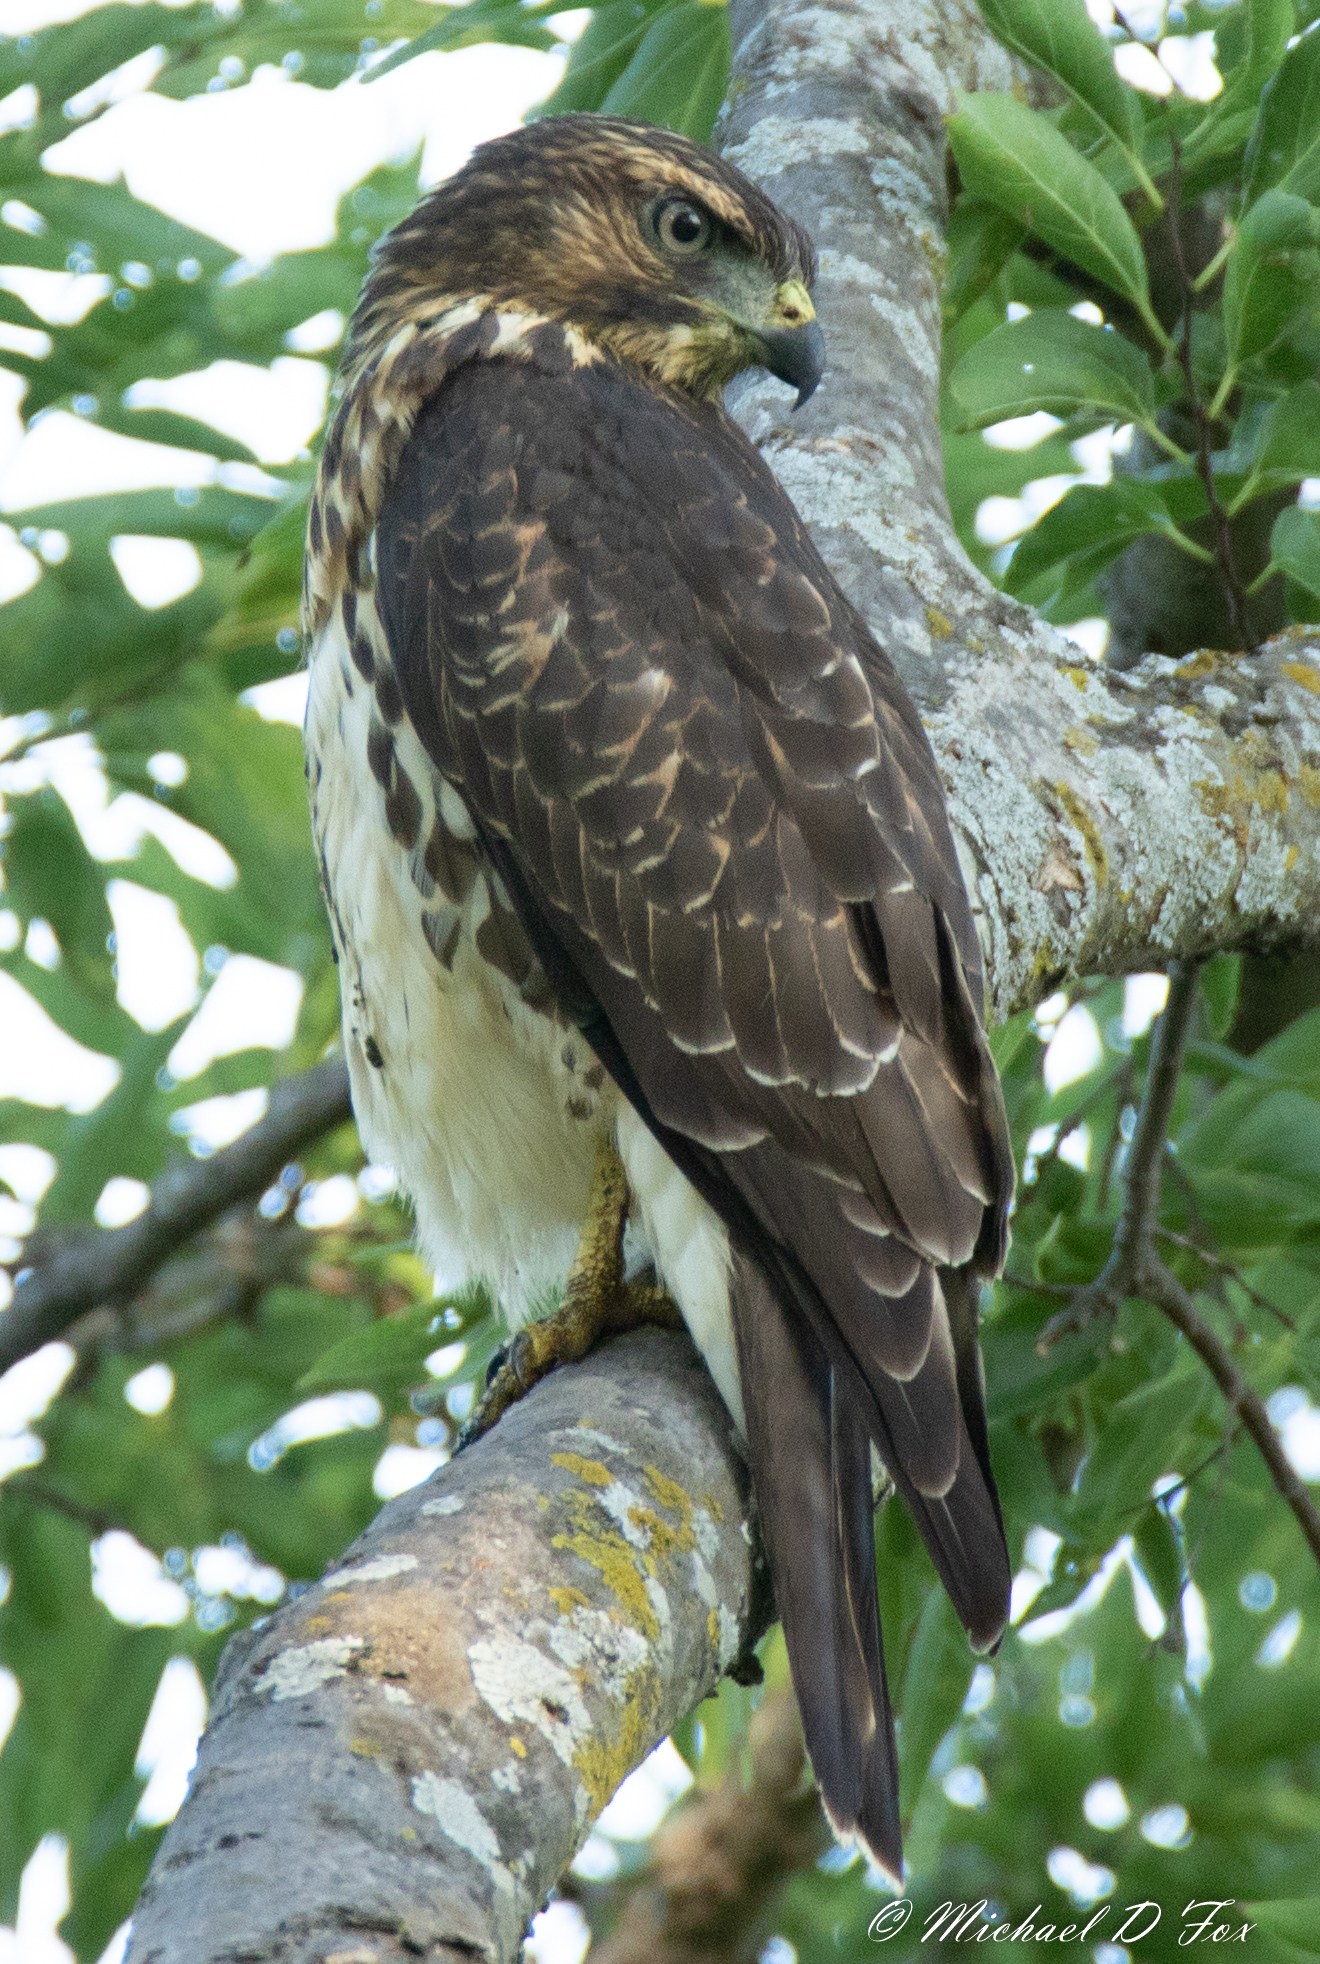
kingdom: Animalia
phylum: Chordata
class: Aves
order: Accipitriformes
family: Accipitridae
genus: Buteo
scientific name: Buteo platypterus
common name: Broad-winged hawk
